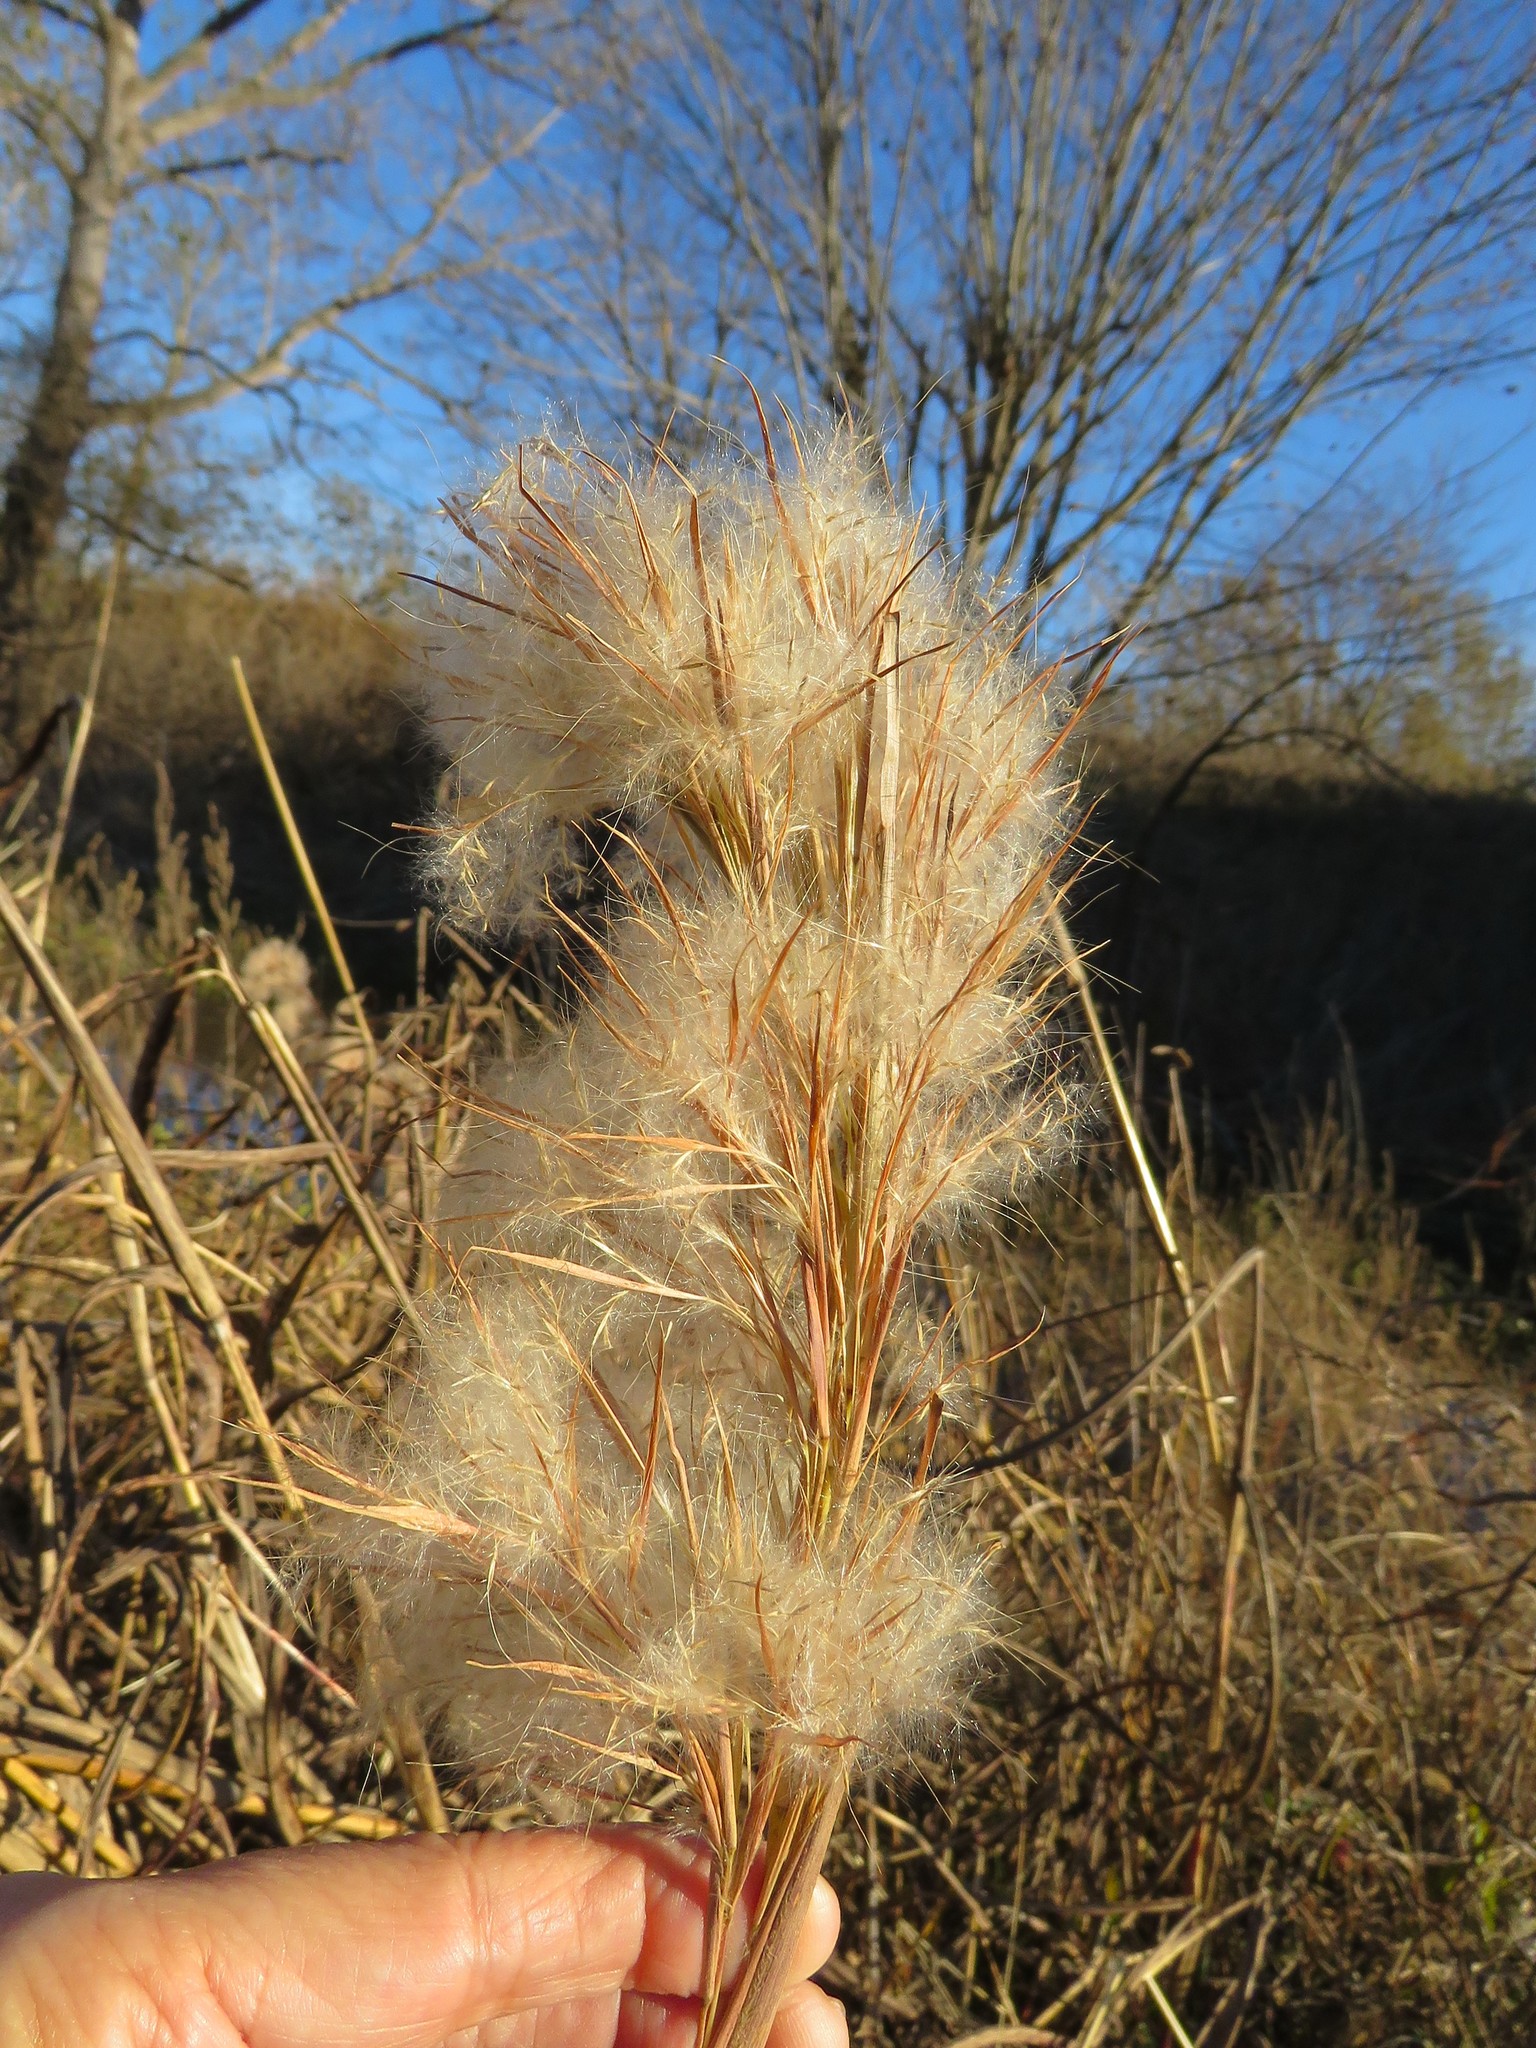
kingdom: Plantae
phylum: Tracheophyta
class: Liliopsida
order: Poales
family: Poaceae
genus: Andropogon
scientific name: Andropogon tenuispatheus
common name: Bushy bluestem
